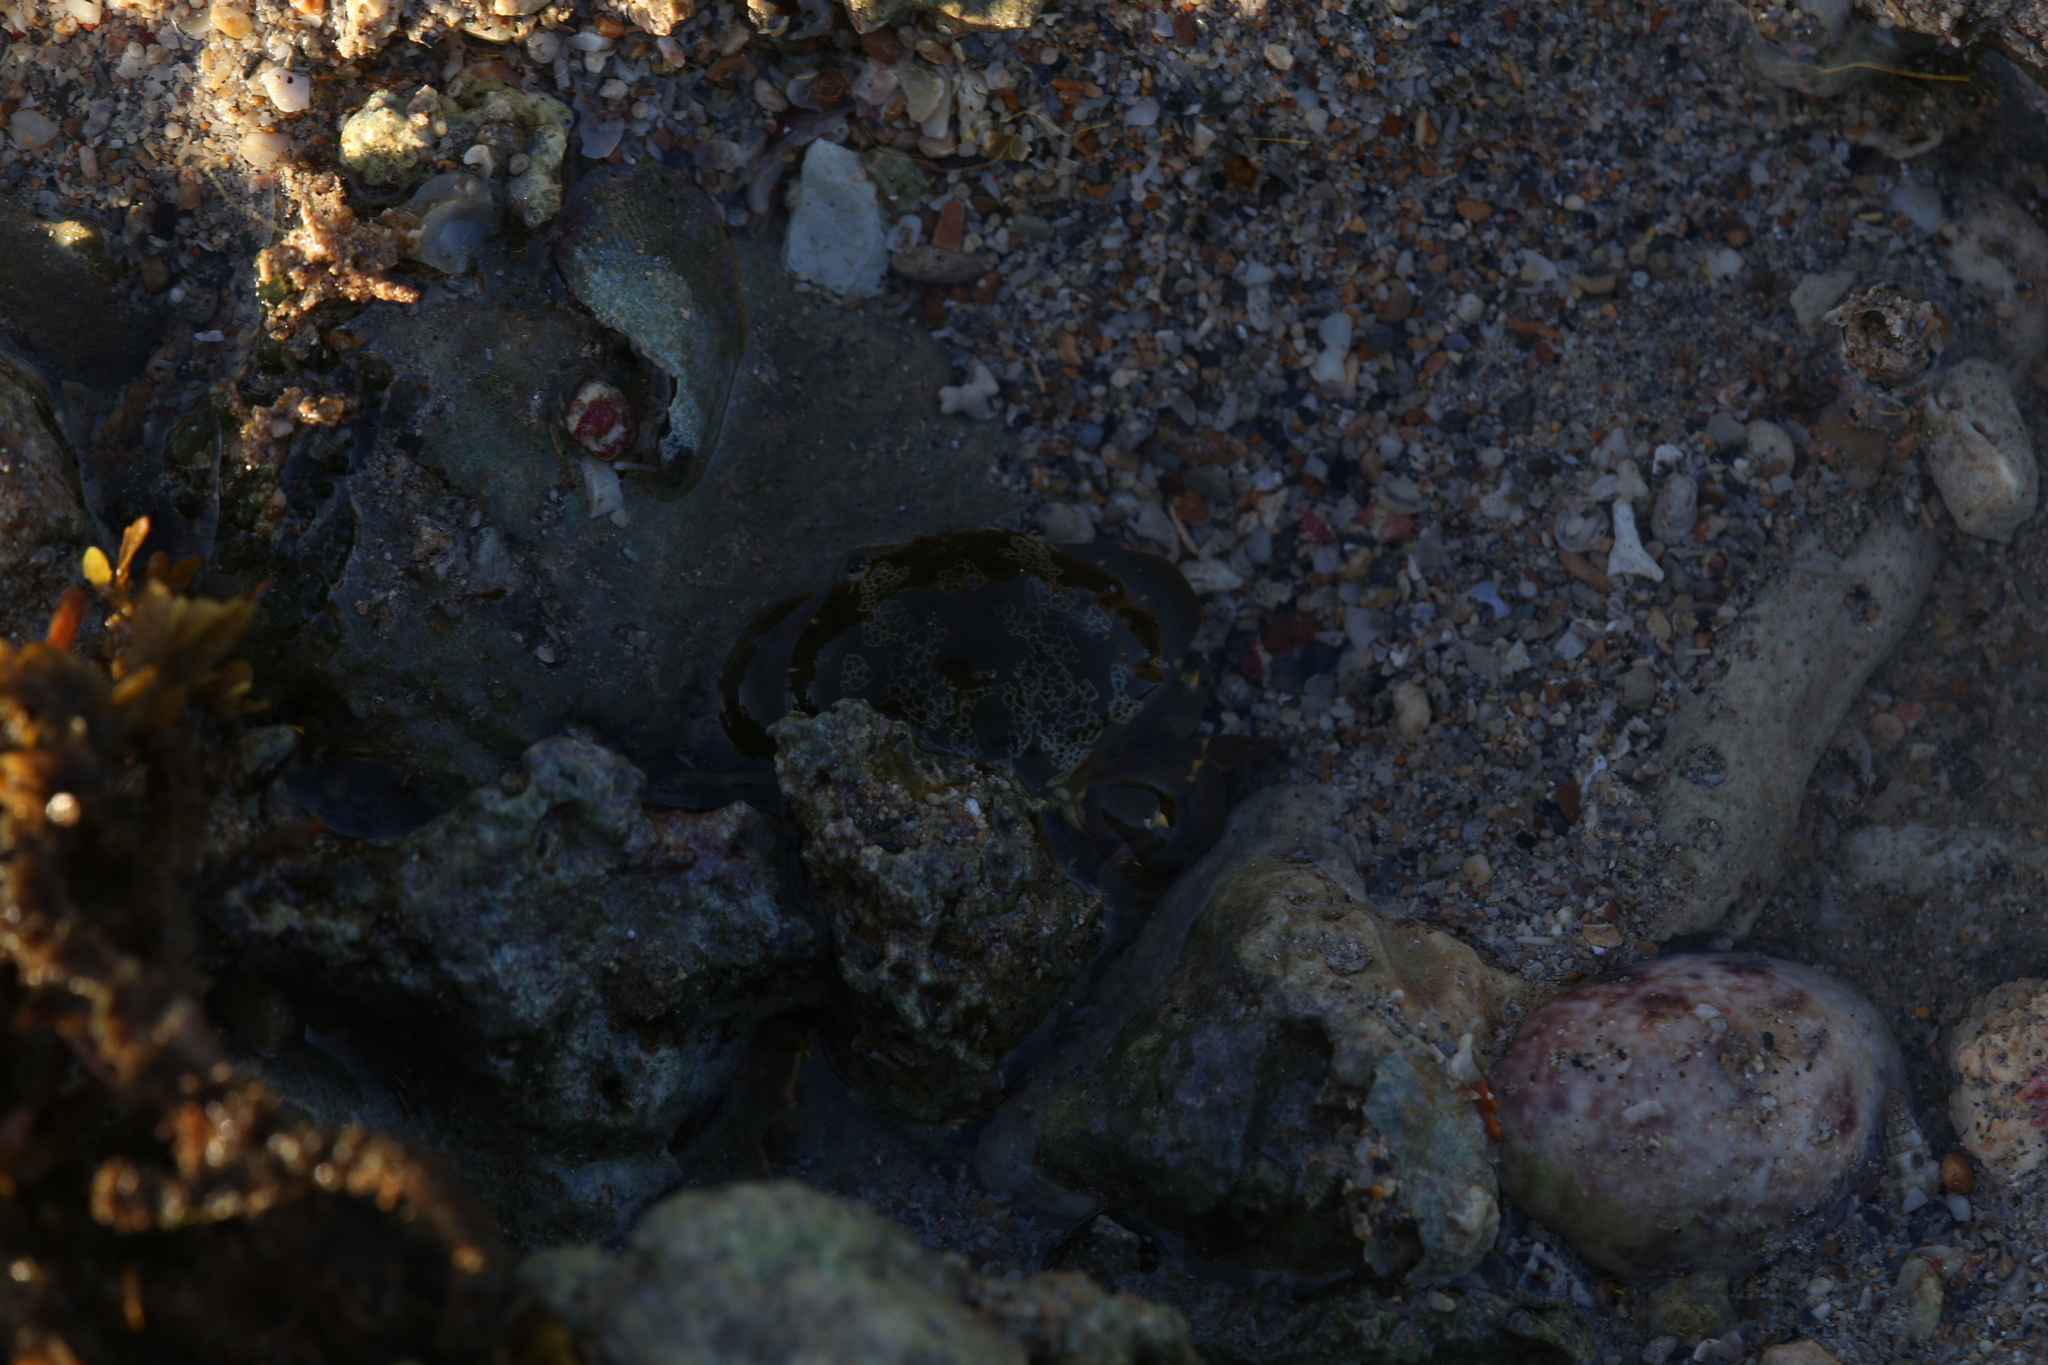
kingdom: Animalia
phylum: Arthropoda
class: Malacostraca
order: Decapoda
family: Xanthidae
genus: Atergatis
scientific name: Atergatis floridus
